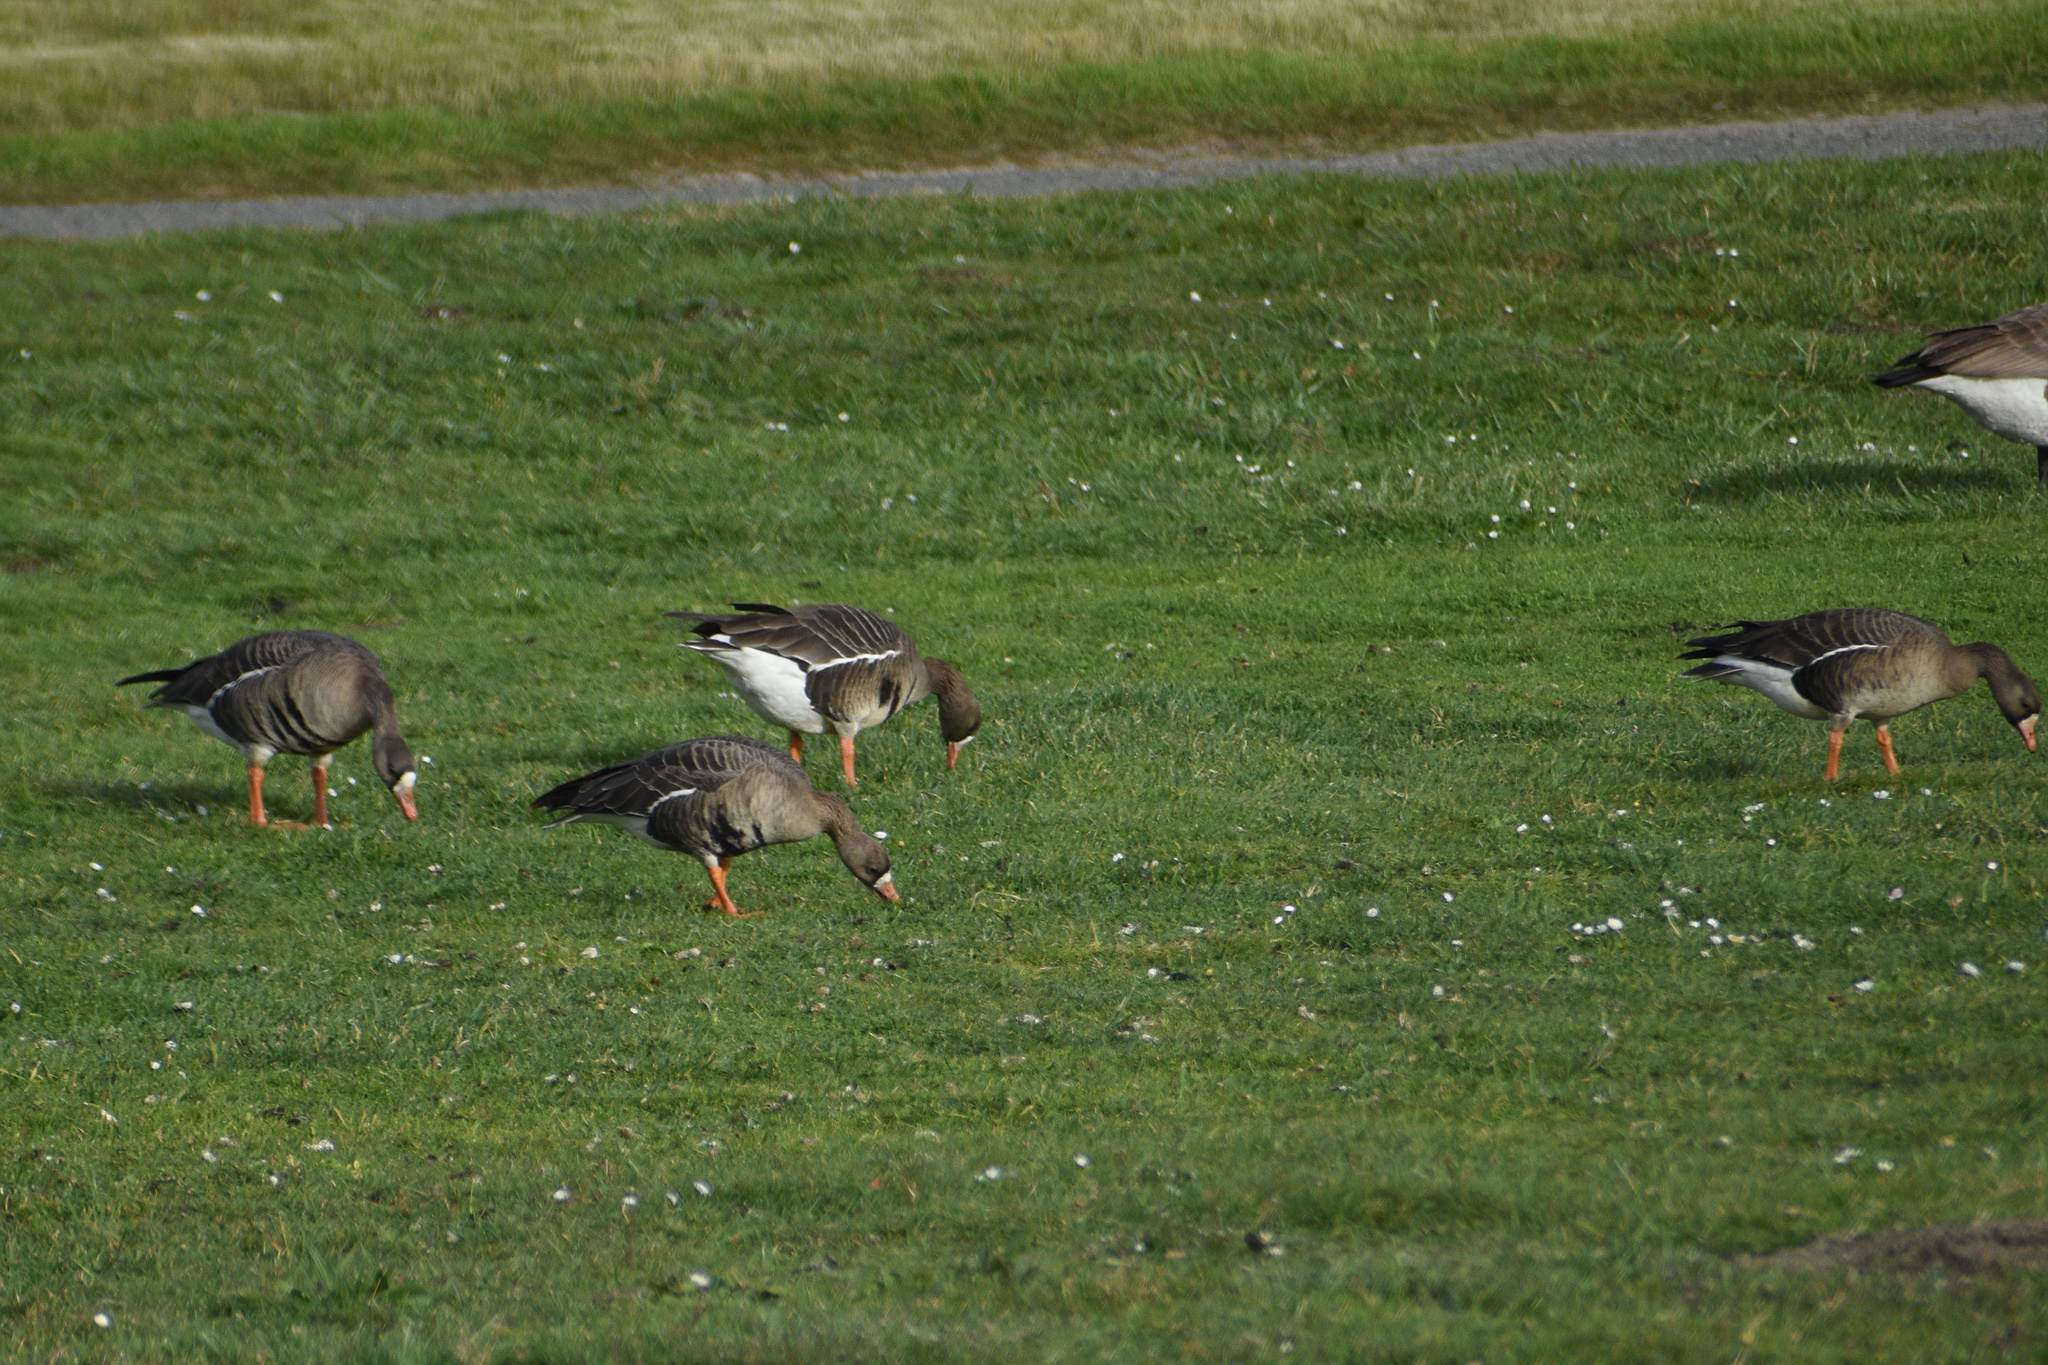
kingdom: Animalia
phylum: Chordata
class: Aves
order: Anseriformes
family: Anatidae
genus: Anser
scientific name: Anser albifrons
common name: Greater white-fronted goose
